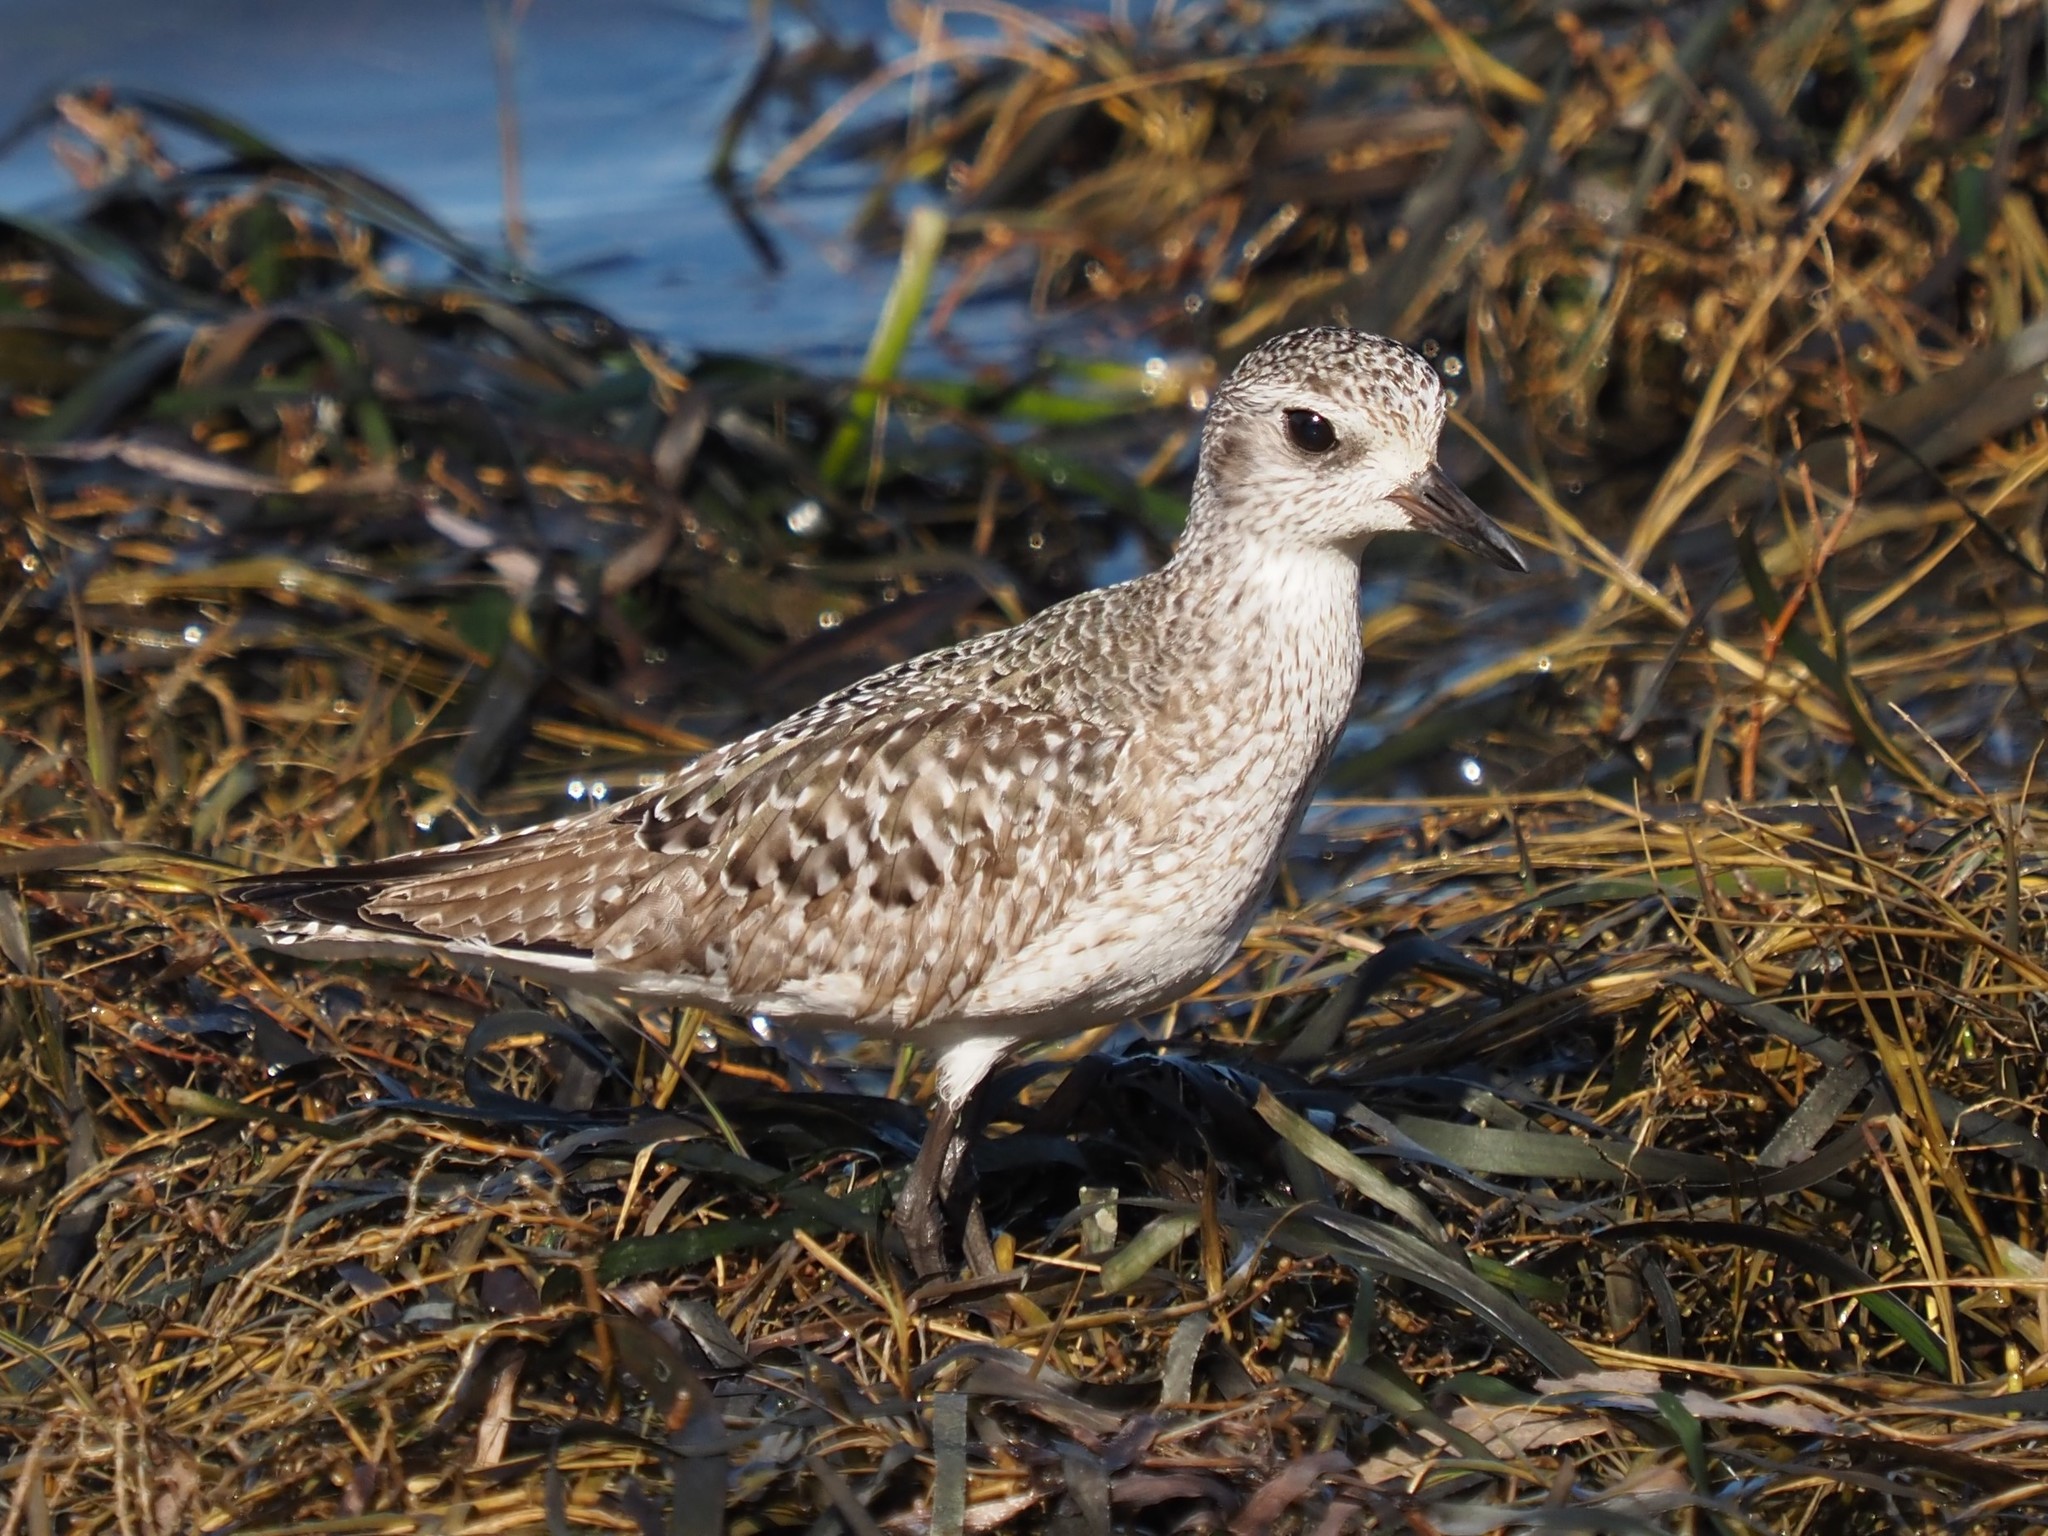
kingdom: Animalia
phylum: Chordata
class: Aves
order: Charadriiformes
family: Charadriidae
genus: Pluvialis
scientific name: Pluvialis squatarola
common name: Grey plover
